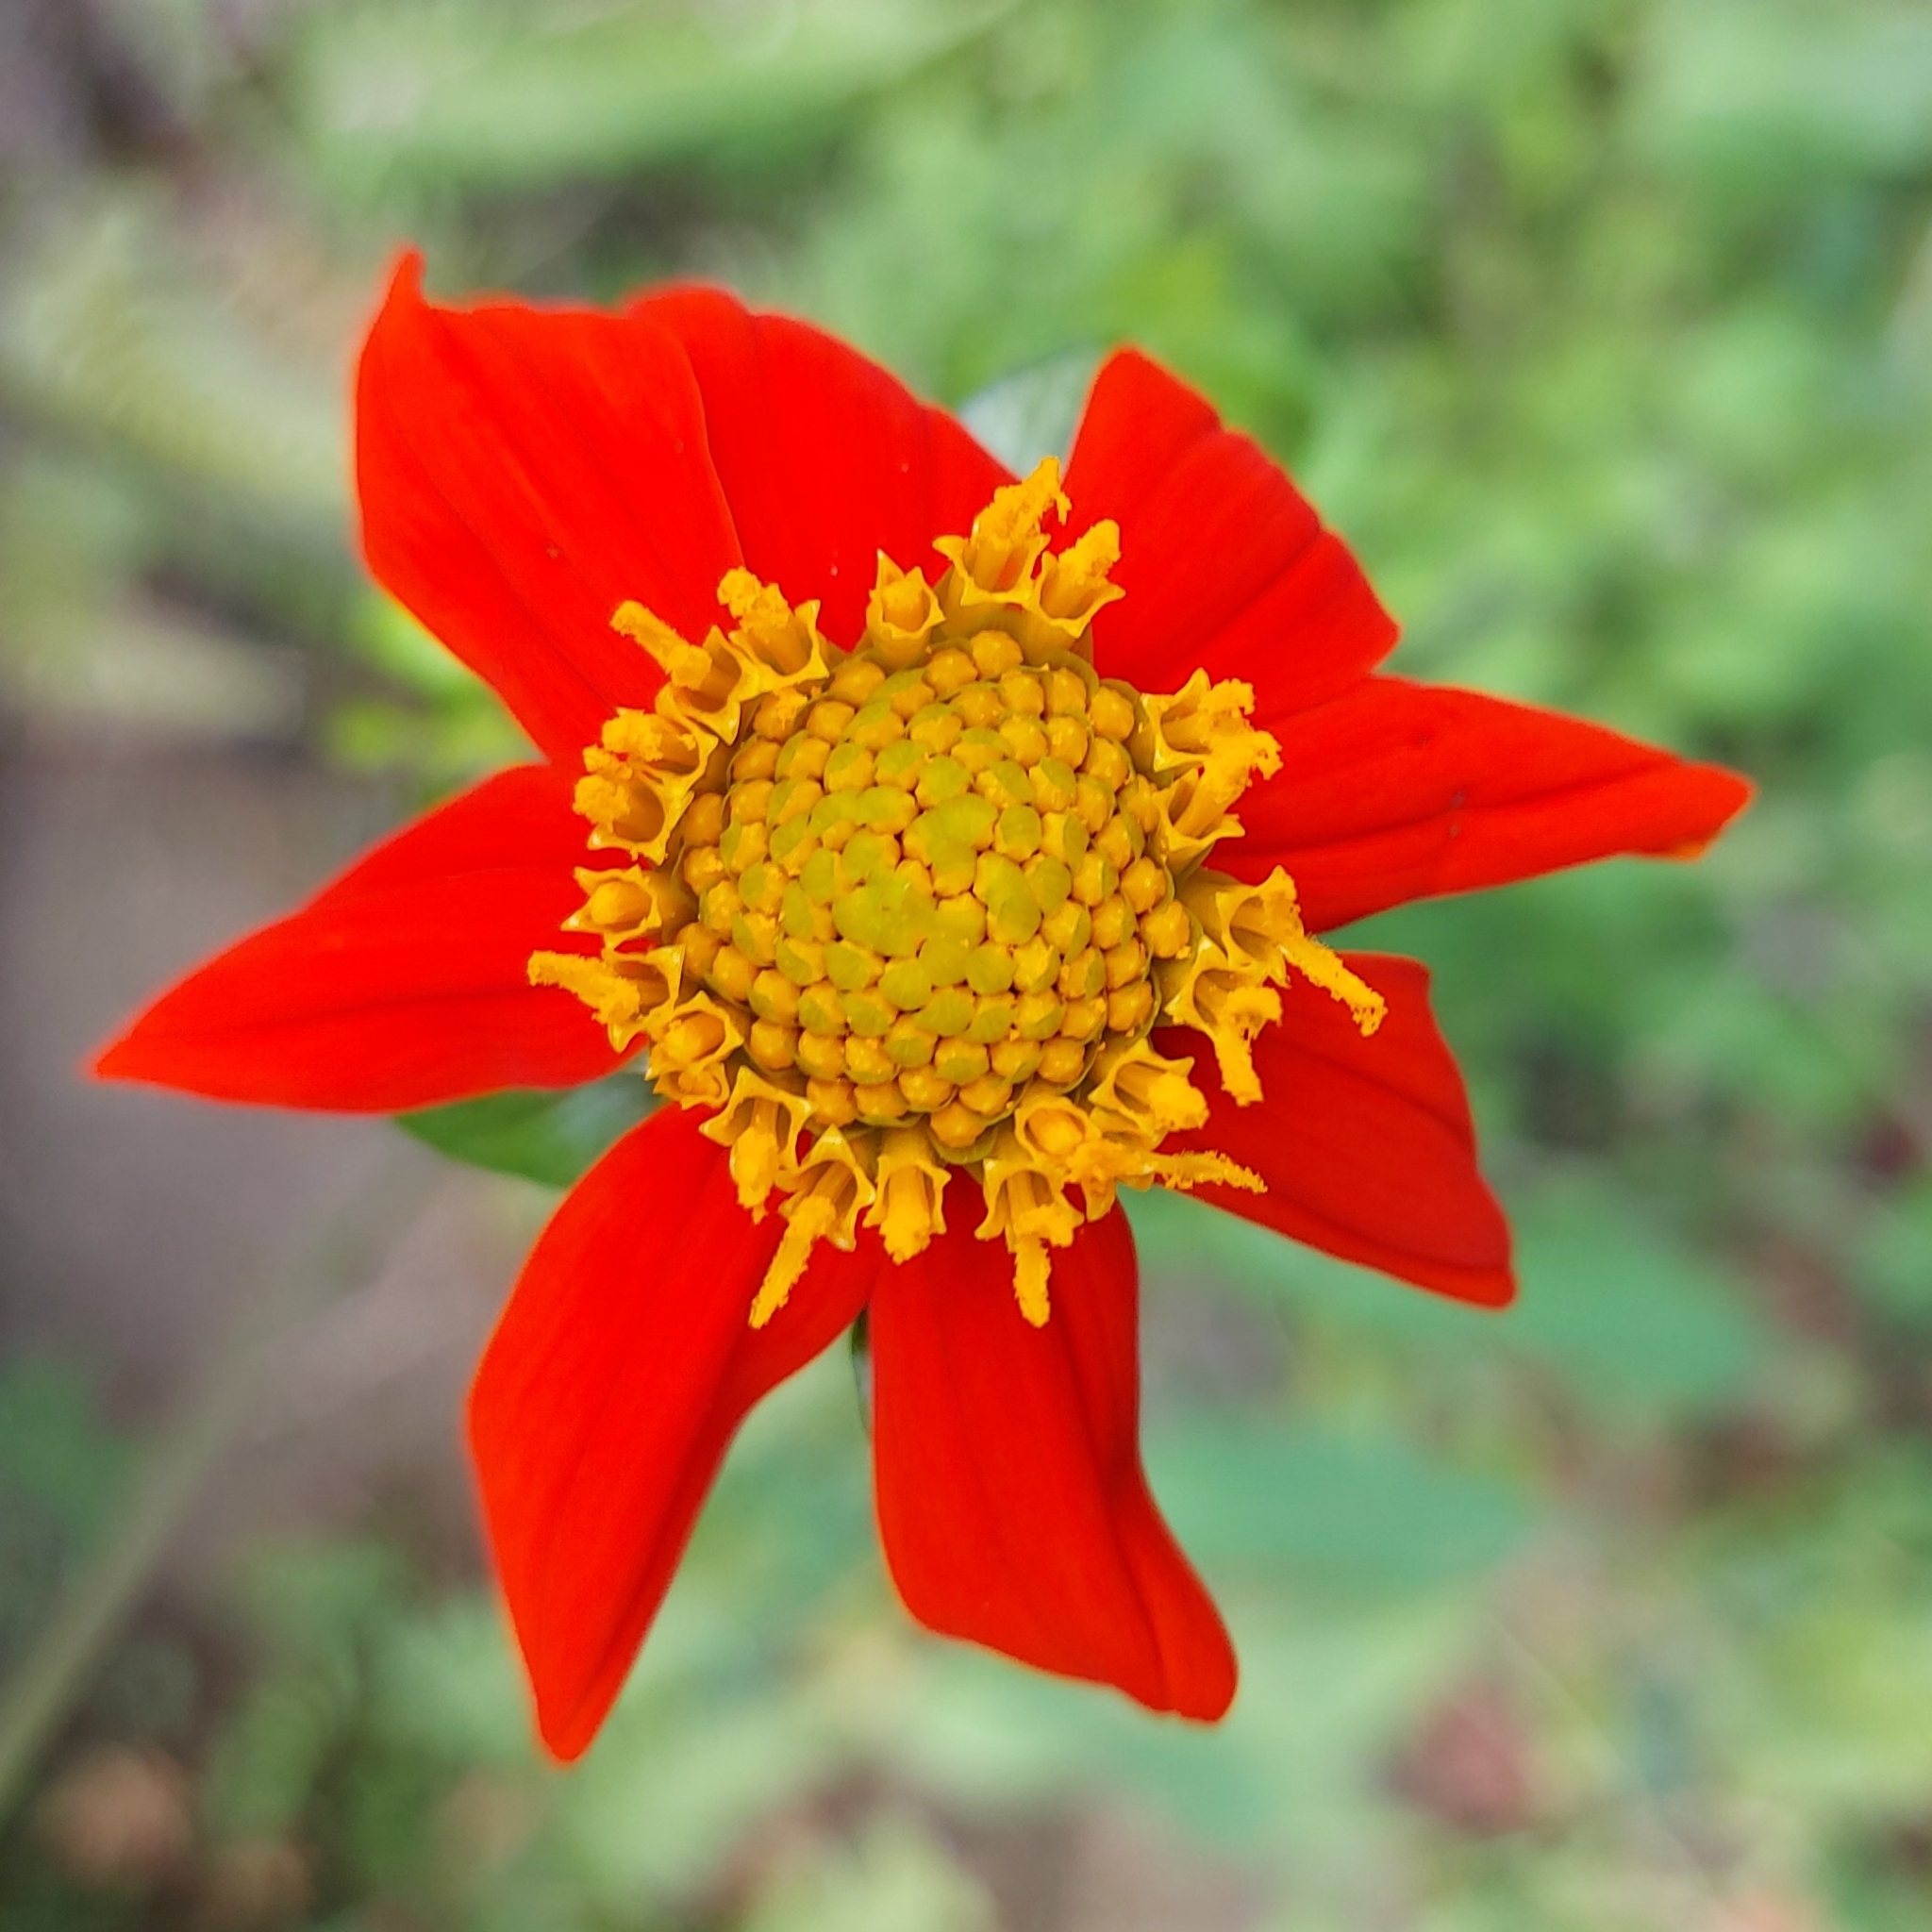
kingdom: Plantae
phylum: Tracheophyta
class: Magnoliopsida
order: Asterales
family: Asteraceae
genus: Dahlia
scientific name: Dahlia coccinea
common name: Red dahlia
